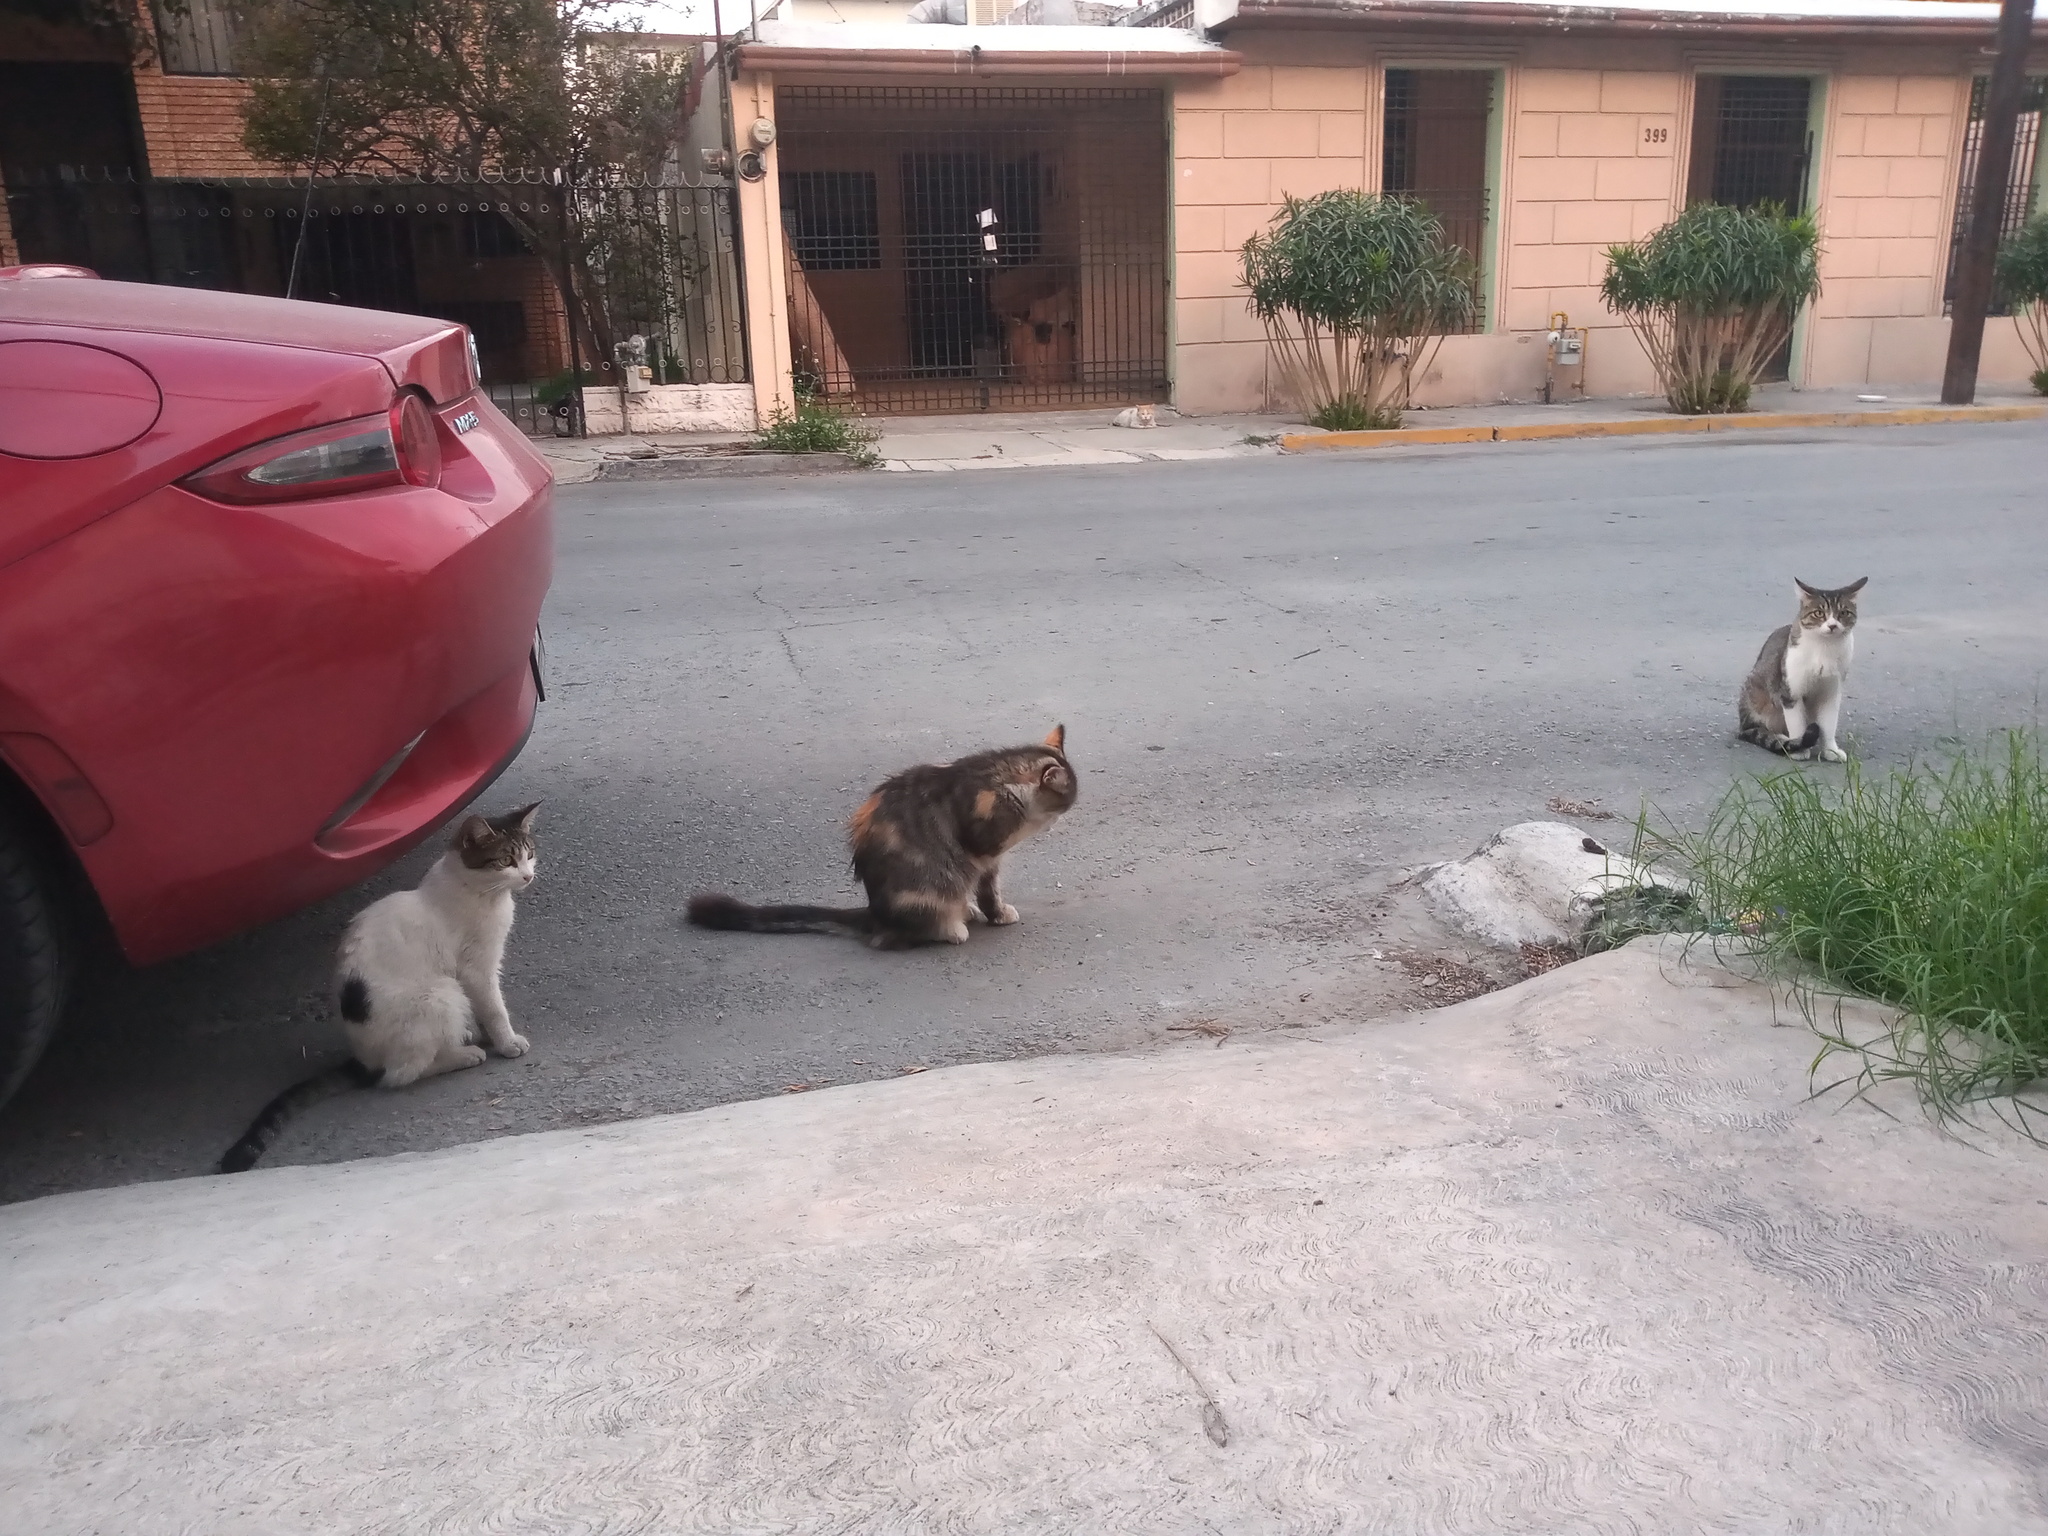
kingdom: Animalia
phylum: Chordata
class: Mammalia
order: Carnivora
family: Felidae
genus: Felis
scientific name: Felis catus
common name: Domestic cat
